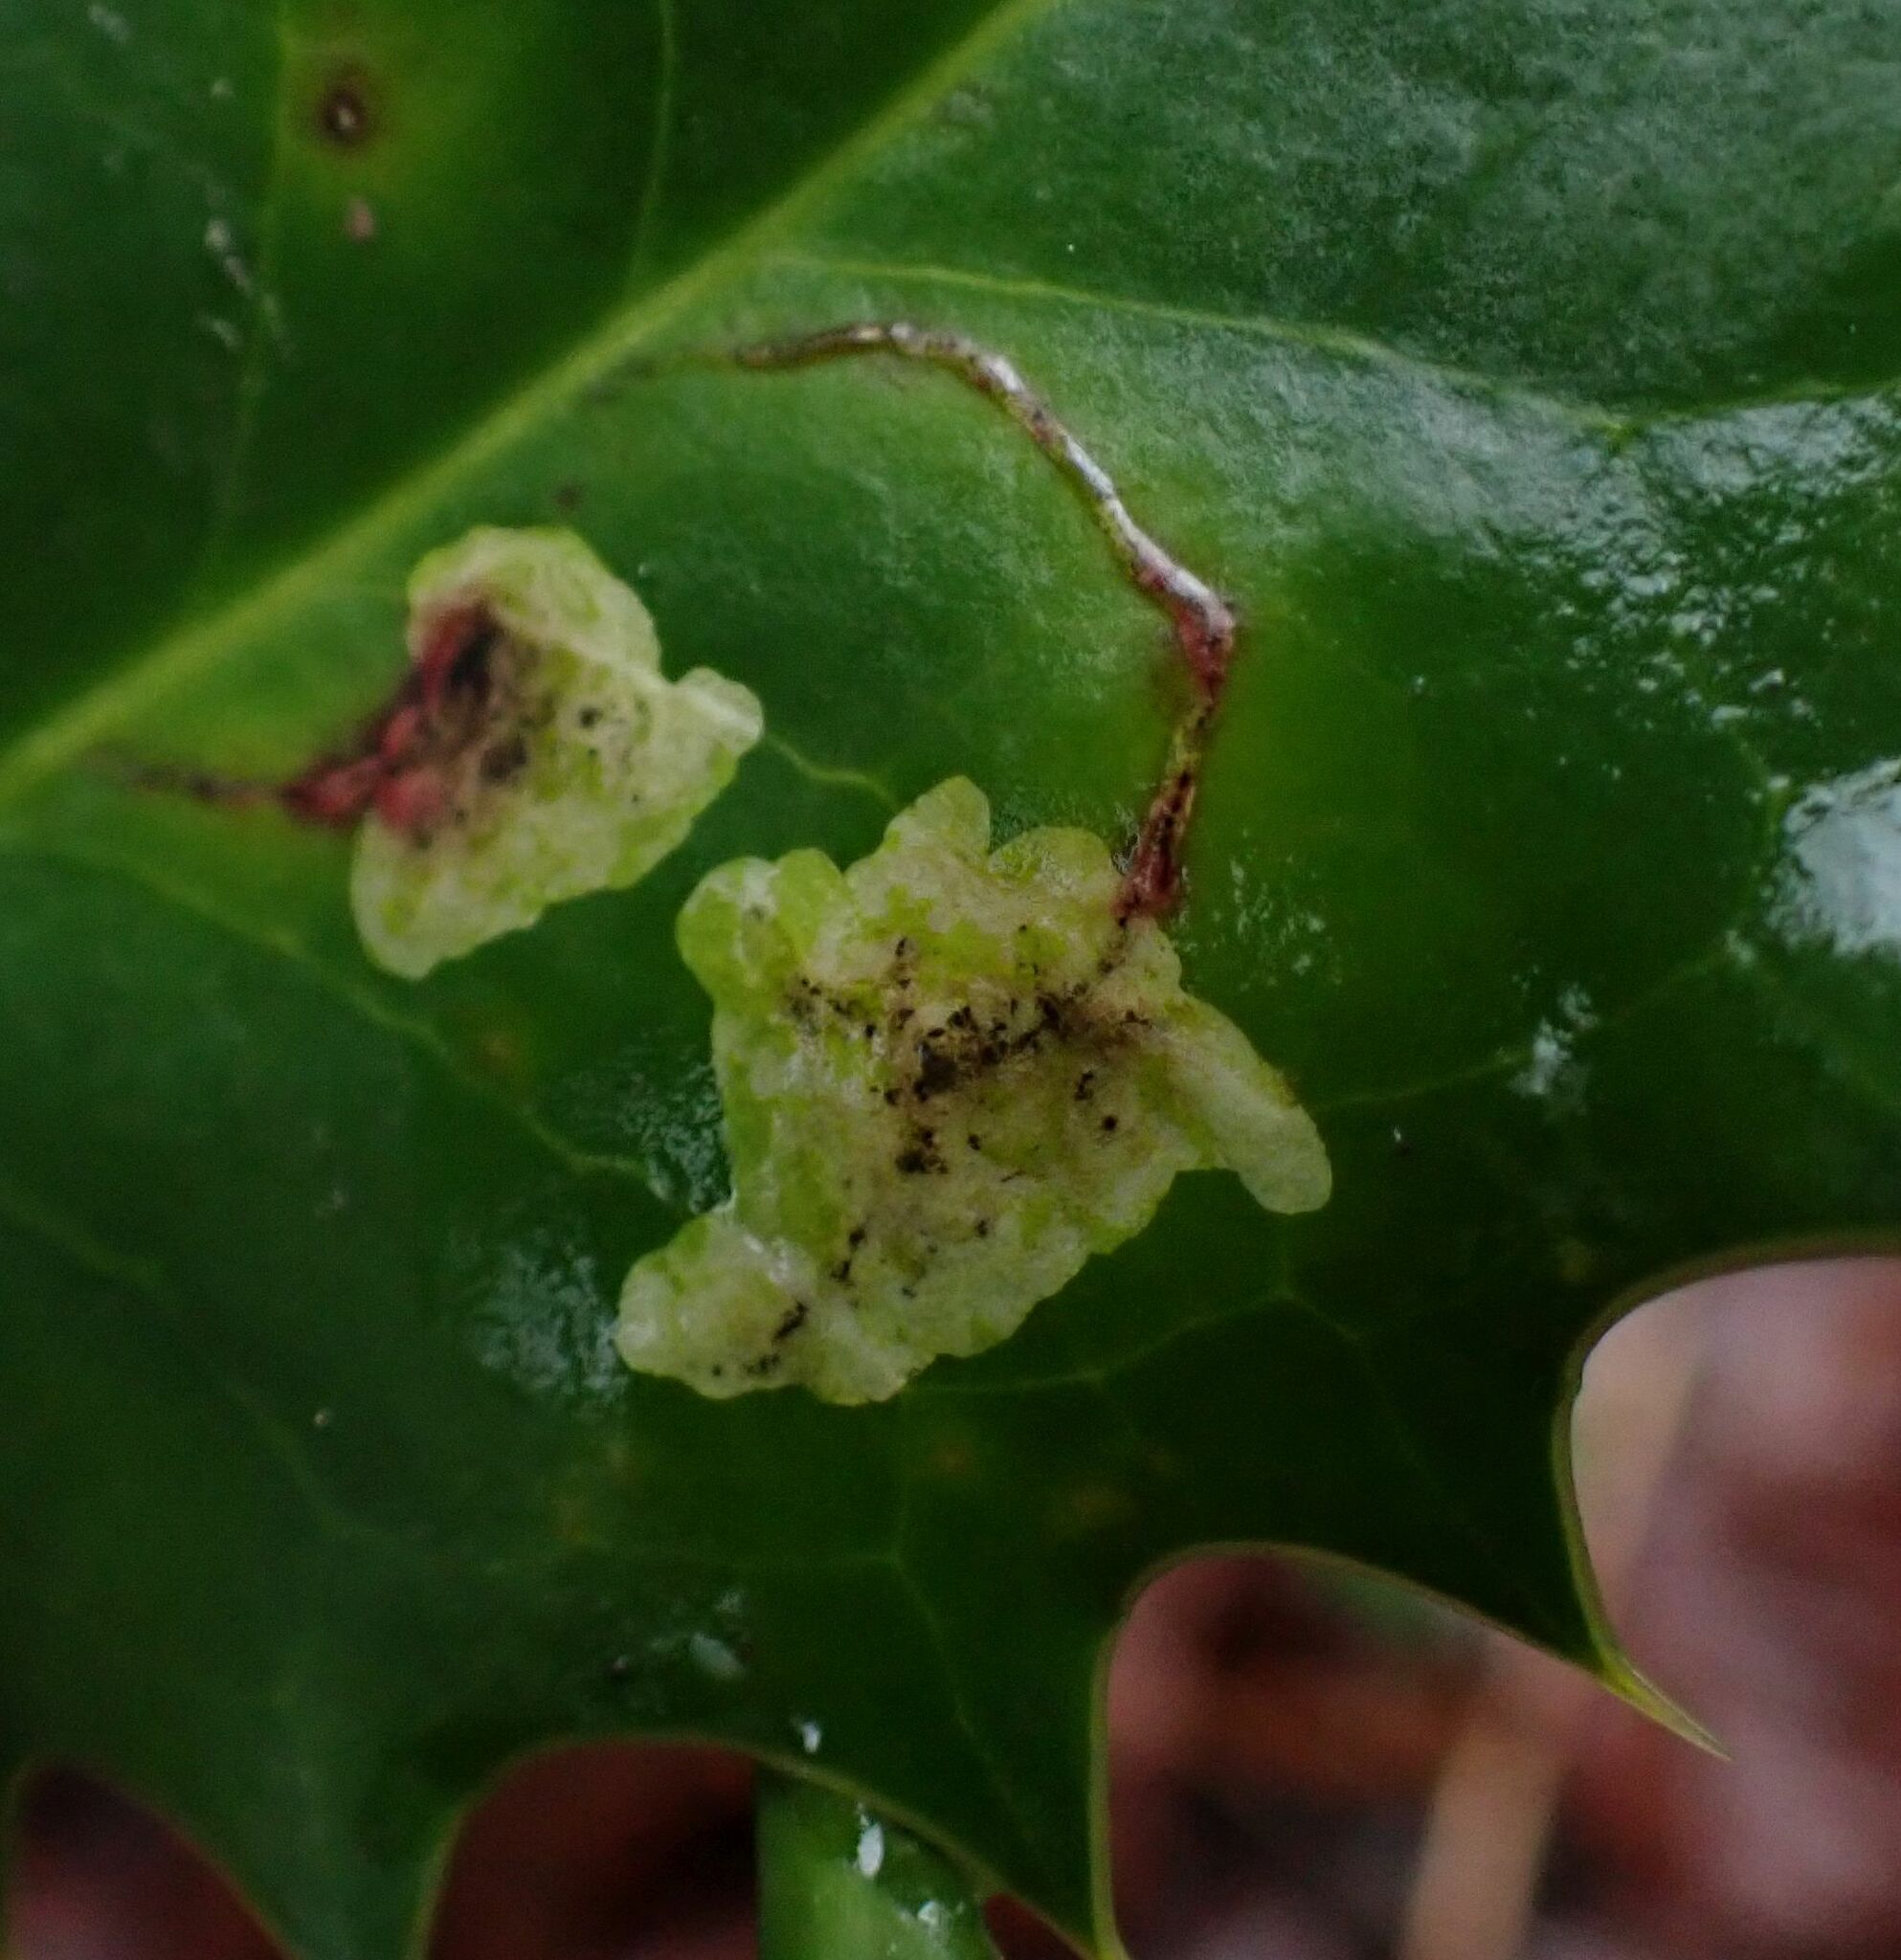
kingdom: Animalia
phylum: Arthropoda
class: Insecta
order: Diptera
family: Agromyzidae
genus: Phytomyza
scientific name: Phytomyza ilicis
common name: Holly leafminer
